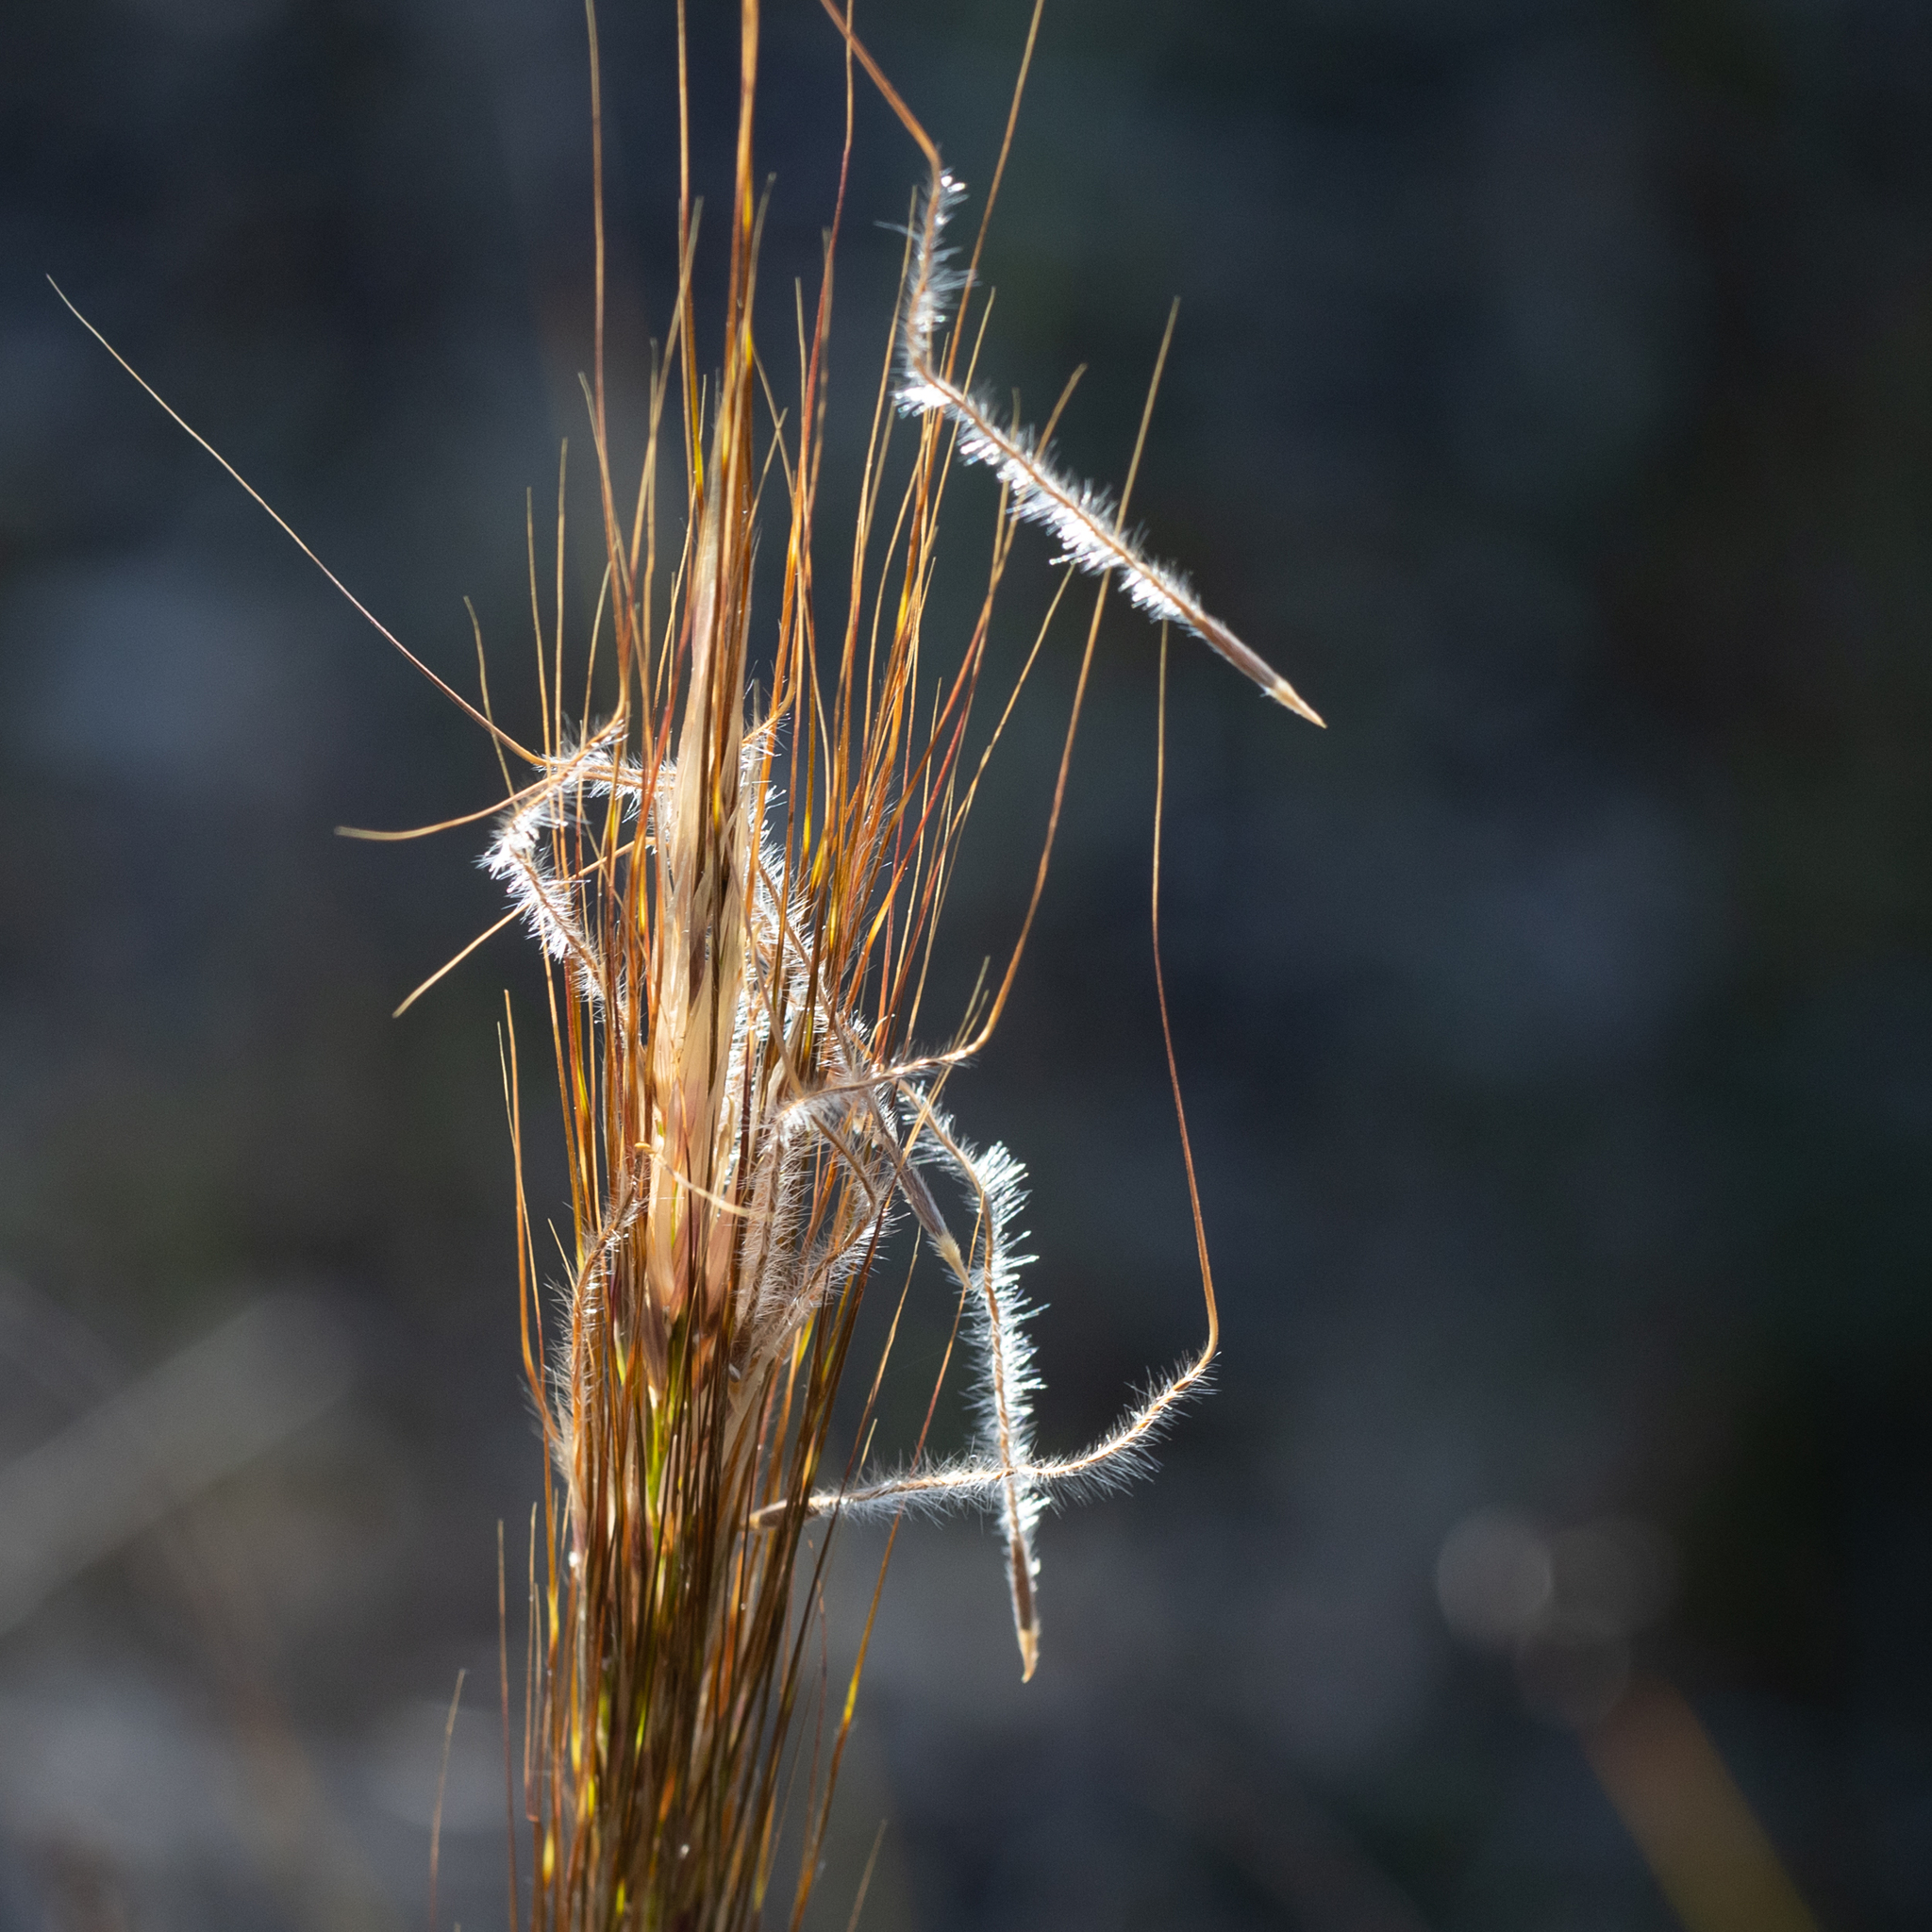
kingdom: Plantae
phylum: Tracheophyta
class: Liliopsida
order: Poales
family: Poaceae
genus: Austrostipa
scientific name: Austrostipa mollis
